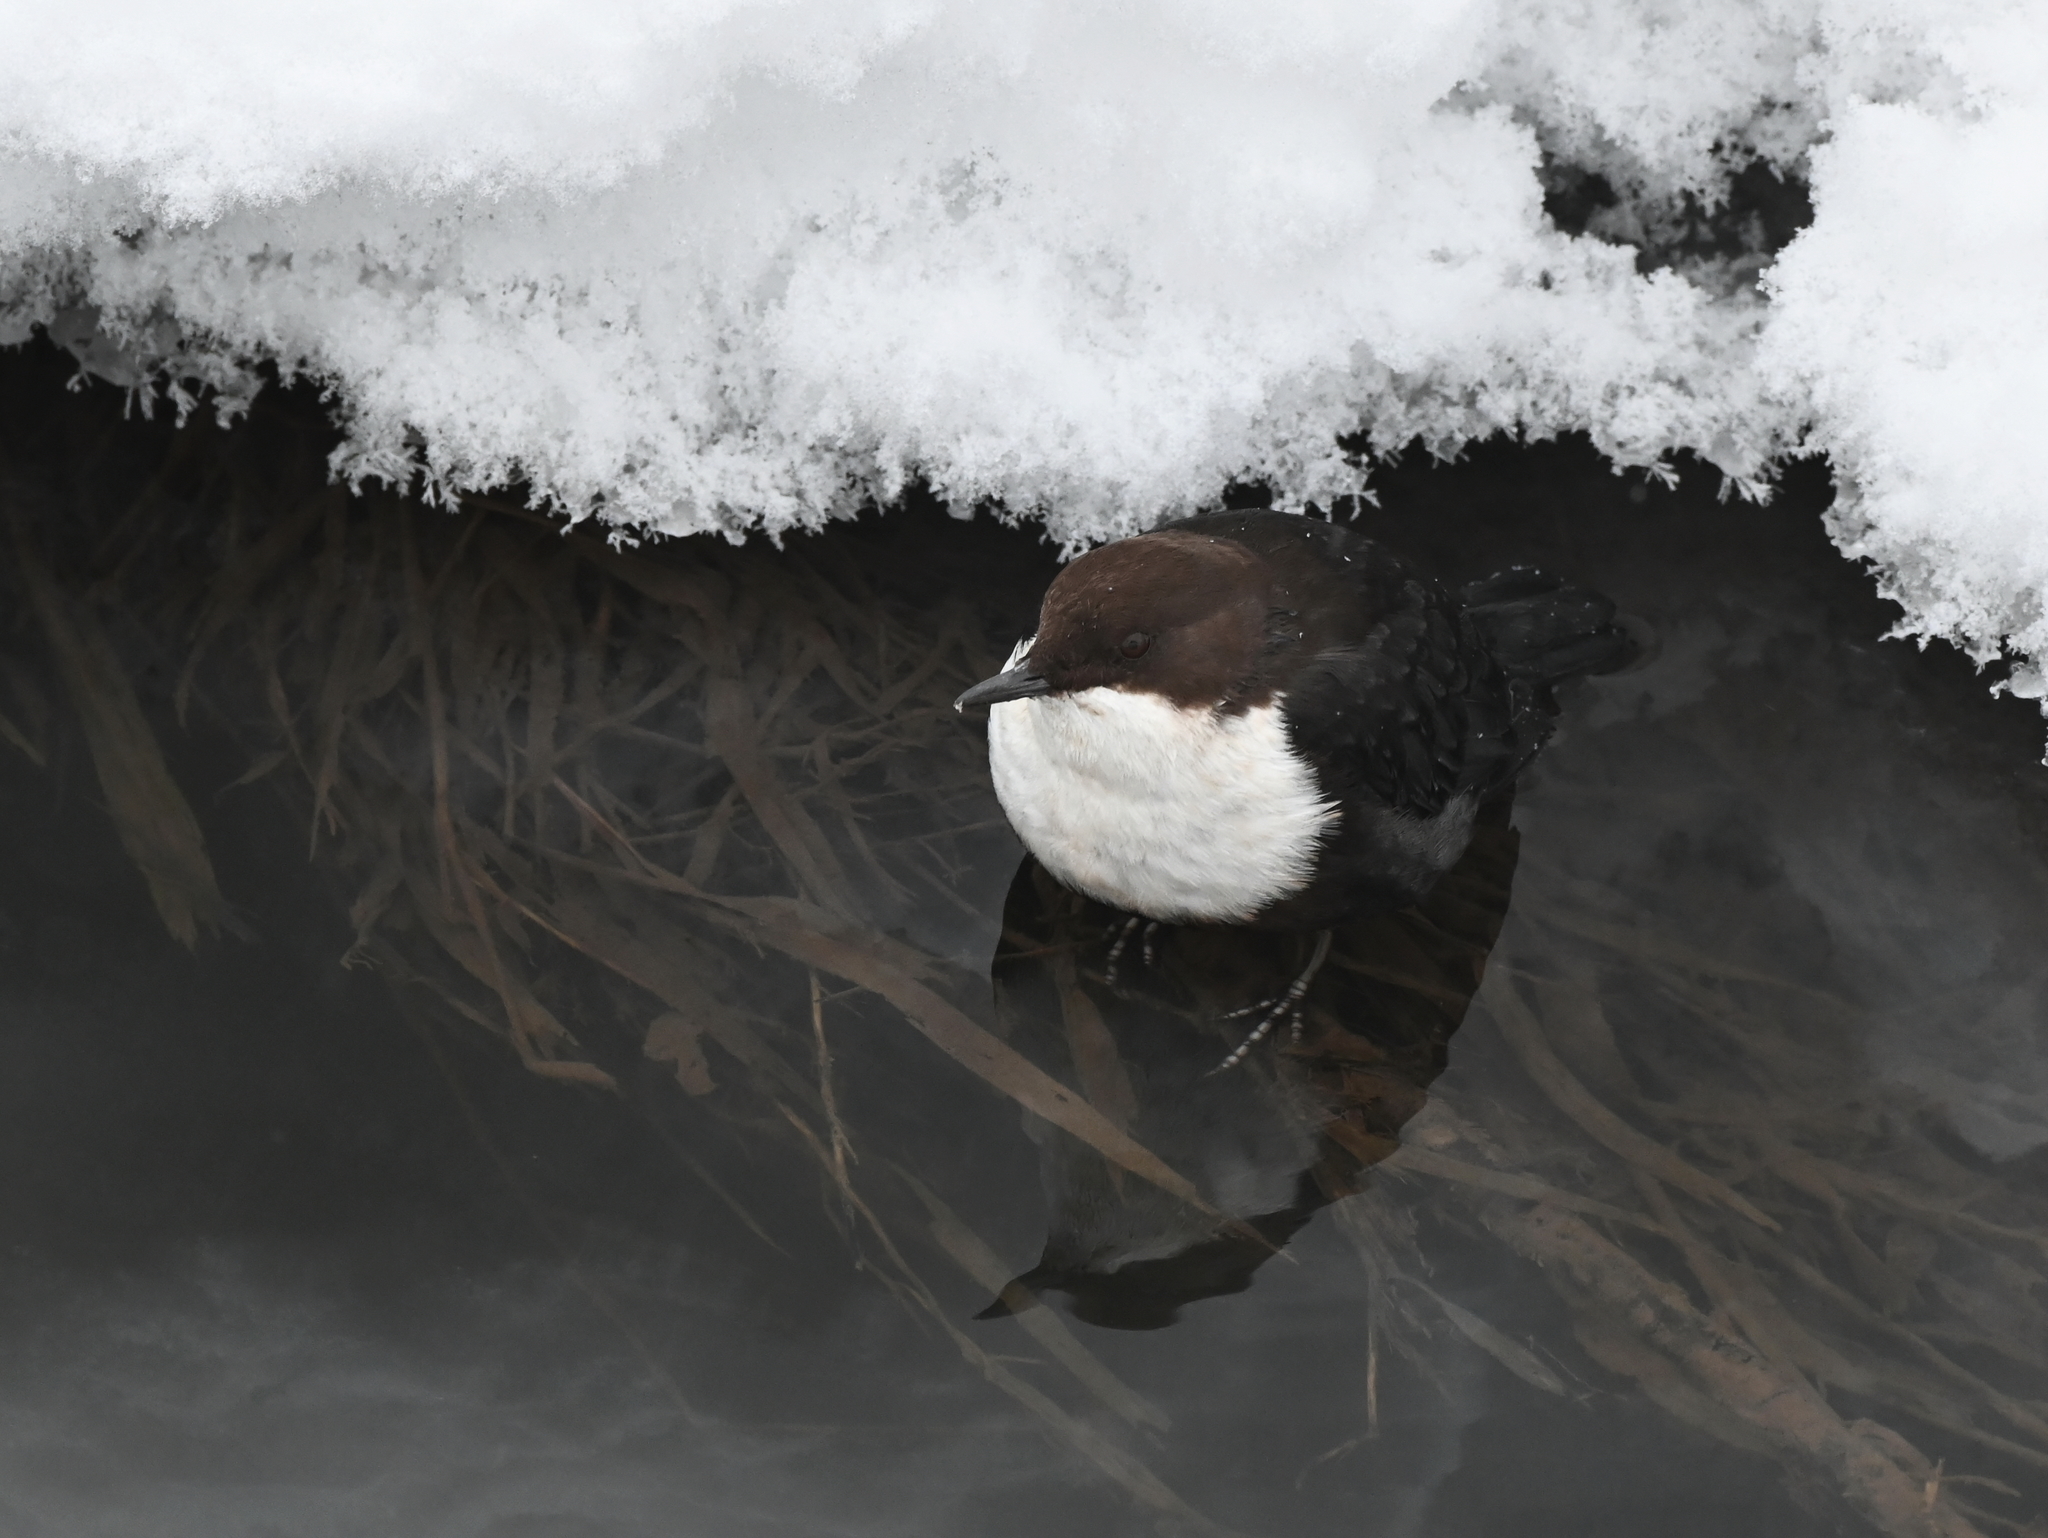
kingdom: Animalia
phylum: Chordata
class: Aves
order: Passeriformes
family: Cinclidae
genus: Cinclus
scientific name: Cinclus cinclus
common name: White-throated dipper
